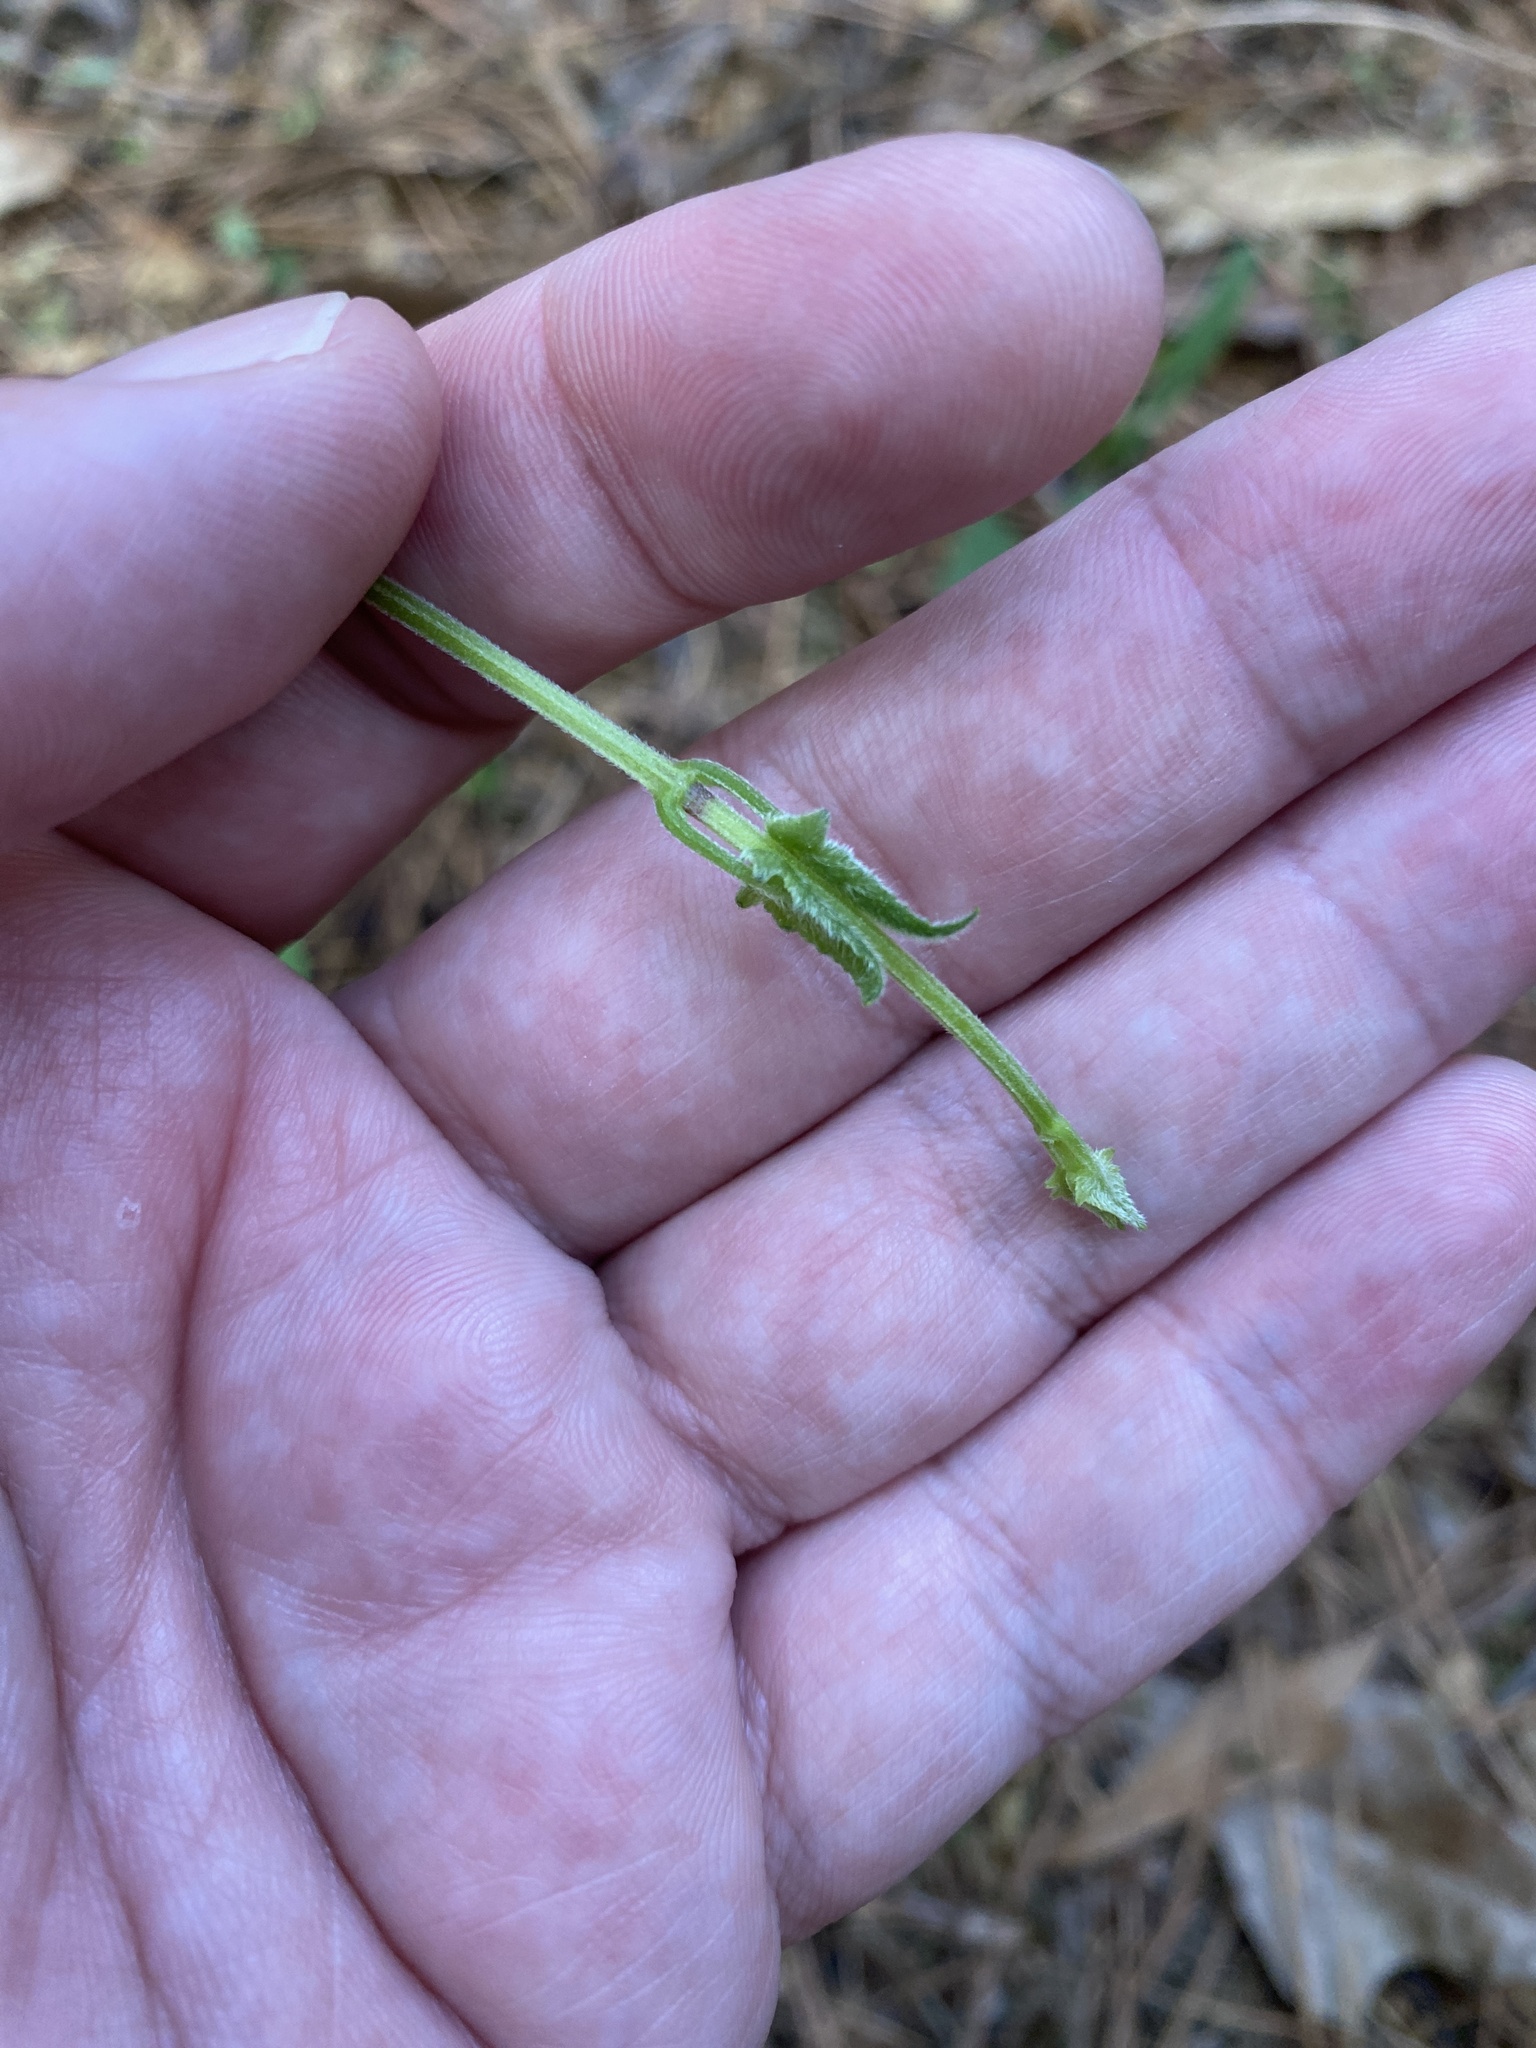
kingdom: Plantae
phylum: Tracheophyta
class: Magnoliopsida
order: Asterales
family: Asteraceae
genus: Mikania
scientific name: Mikania cordifolia
